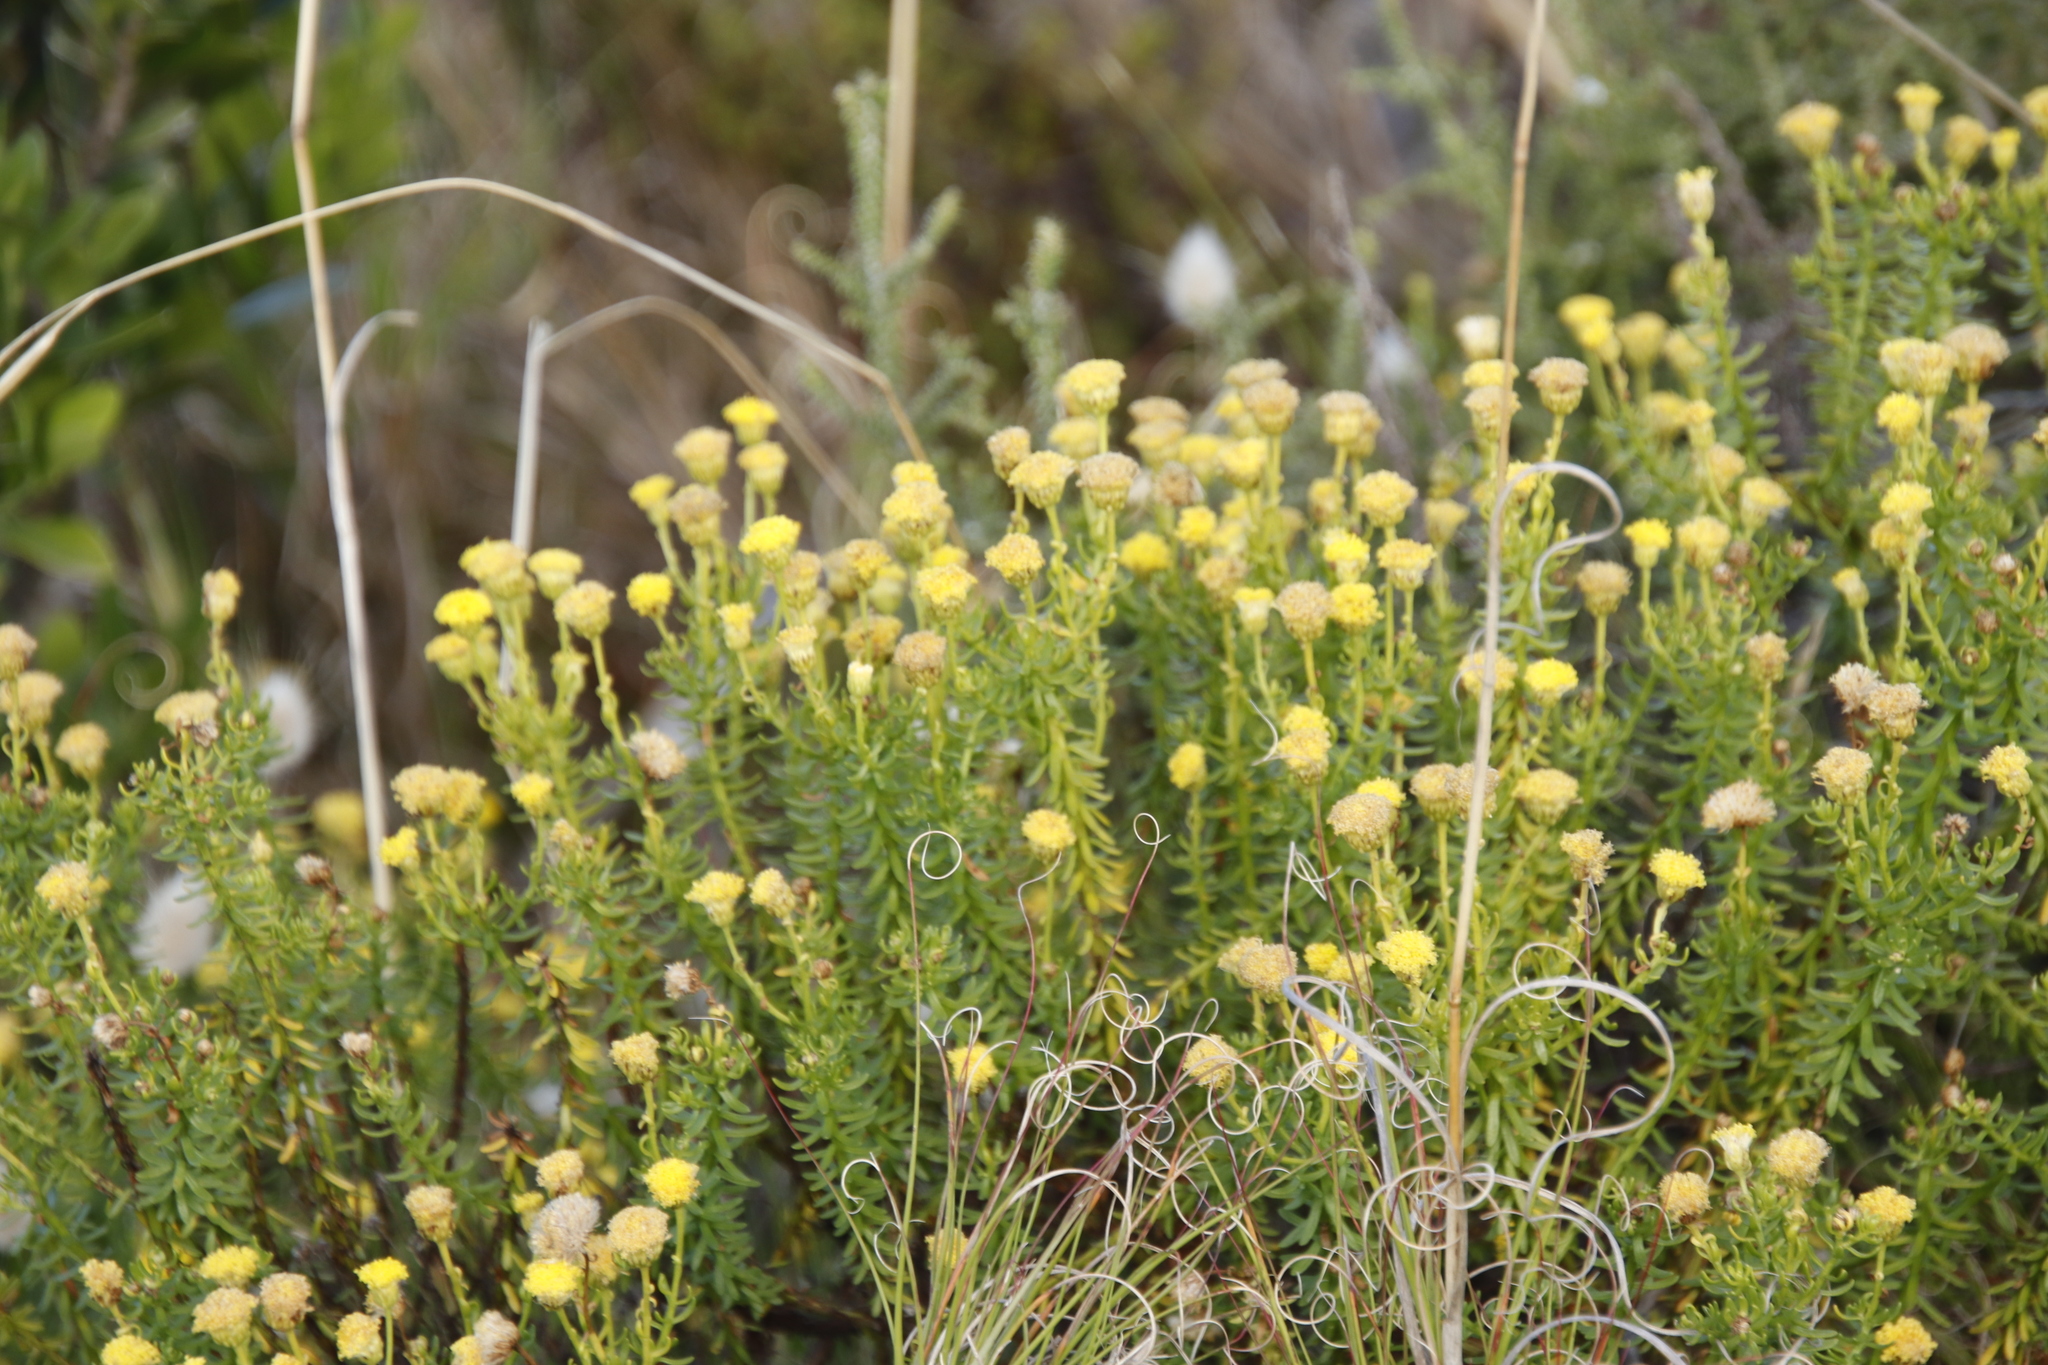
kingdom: Plantae
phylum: Tracheophyta
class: Magnoliopsida
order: Asterales
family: Asteraceae
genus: Chrysocoma
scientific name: Chrysocoma cernua
